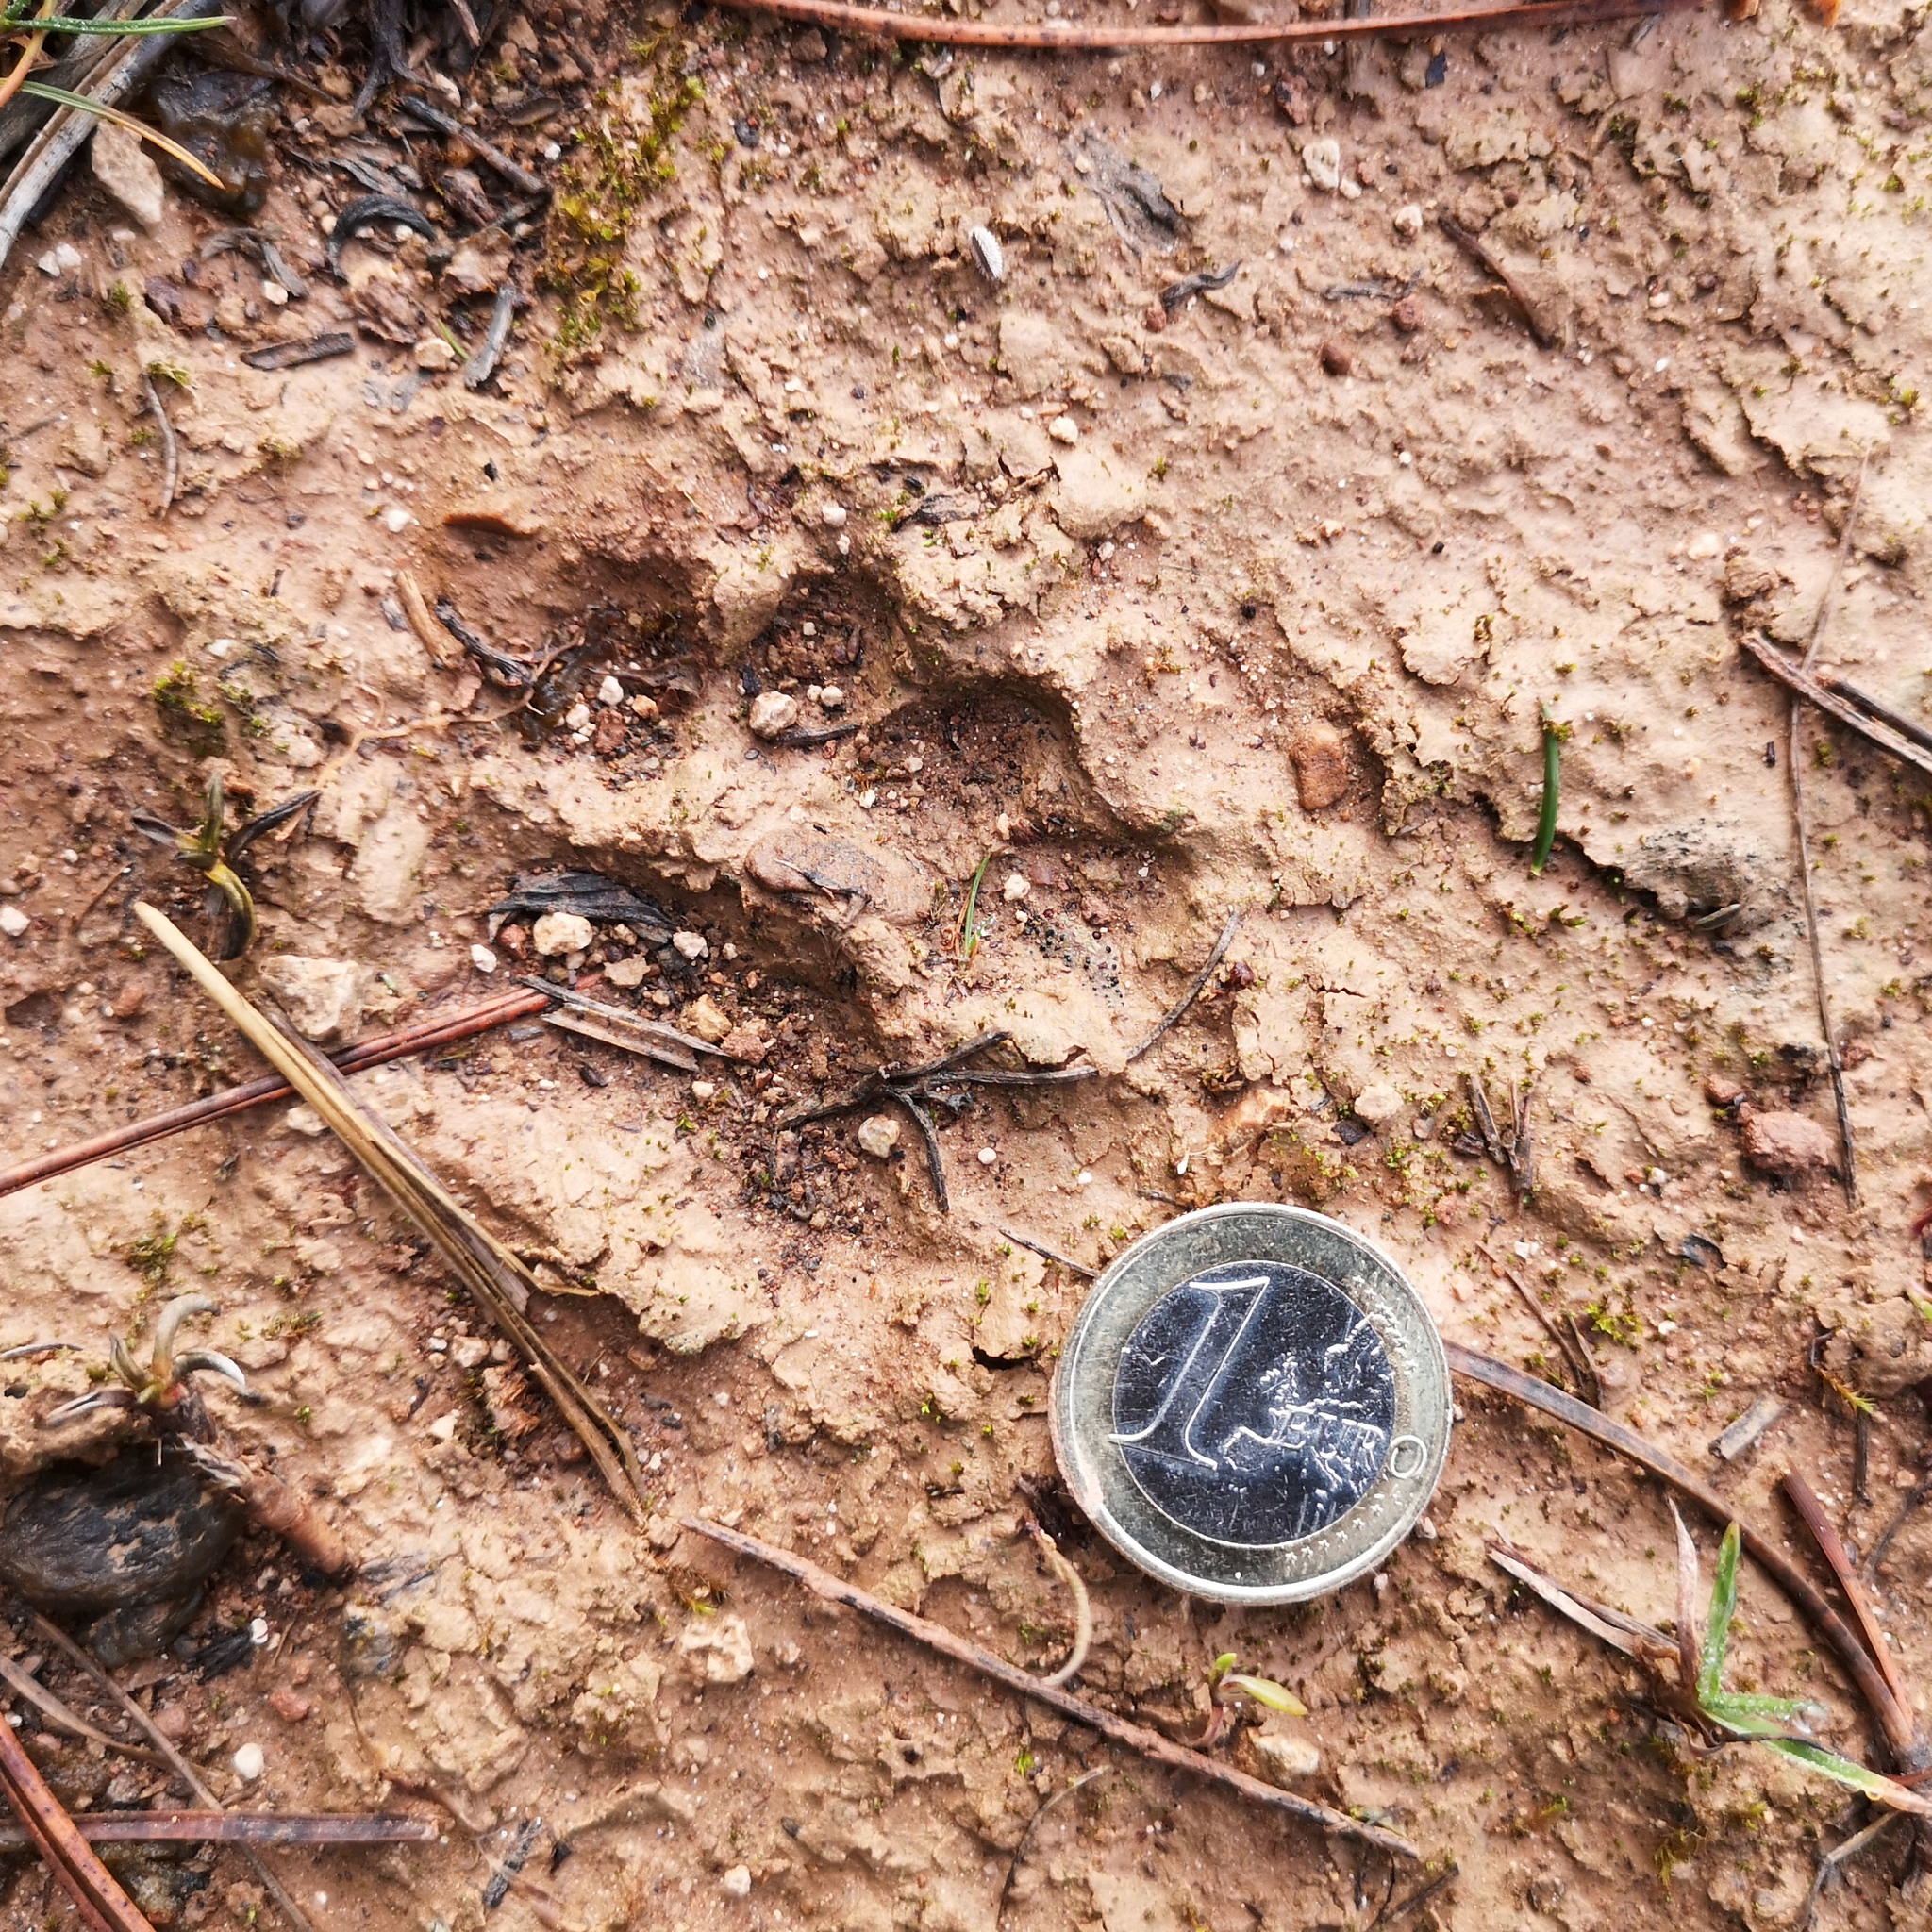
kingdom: Animalia
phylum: Chordata
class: Mammalia
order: Carnivora
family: Mustelidae
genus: Meles
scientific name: Meles meles
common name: Eurasian badger
